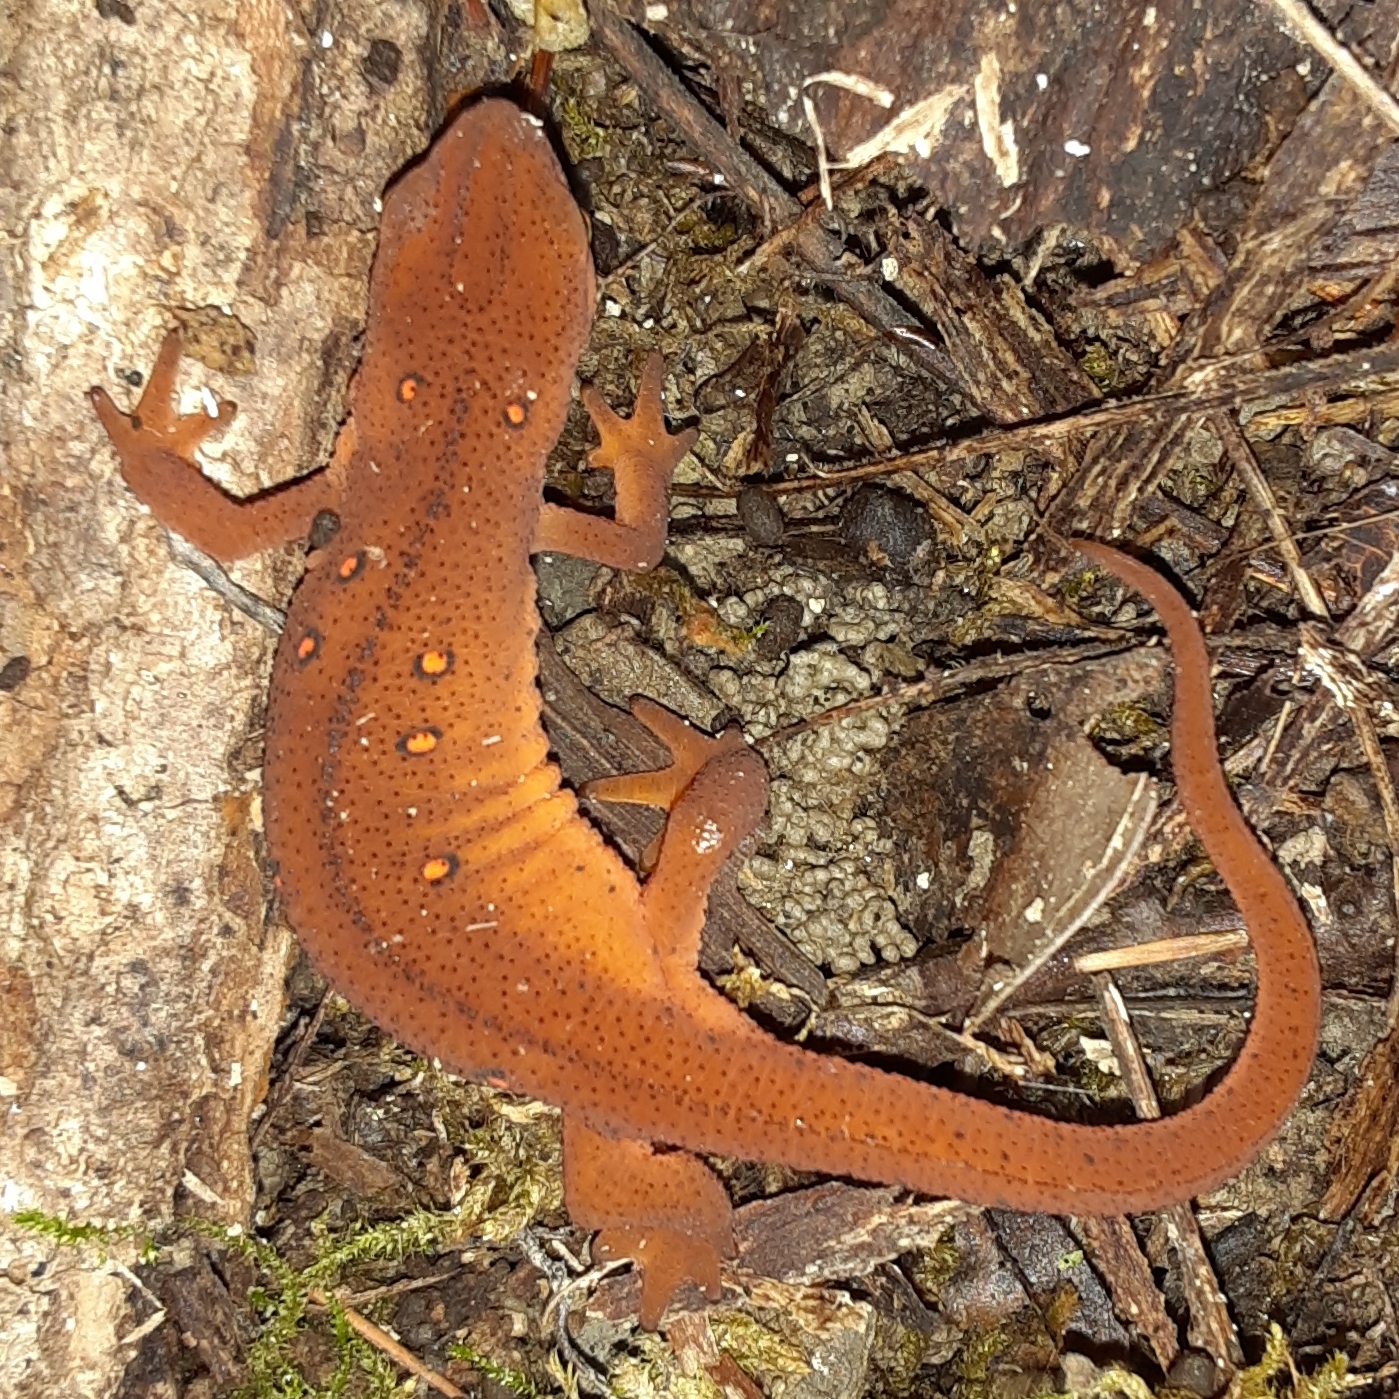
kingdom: Animalia
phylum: Chordata
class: Amphibia
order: Caudata
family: Salamandridae
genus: Notophthalmus
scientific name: Notophthalmus viridescens
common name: Eastern newt
